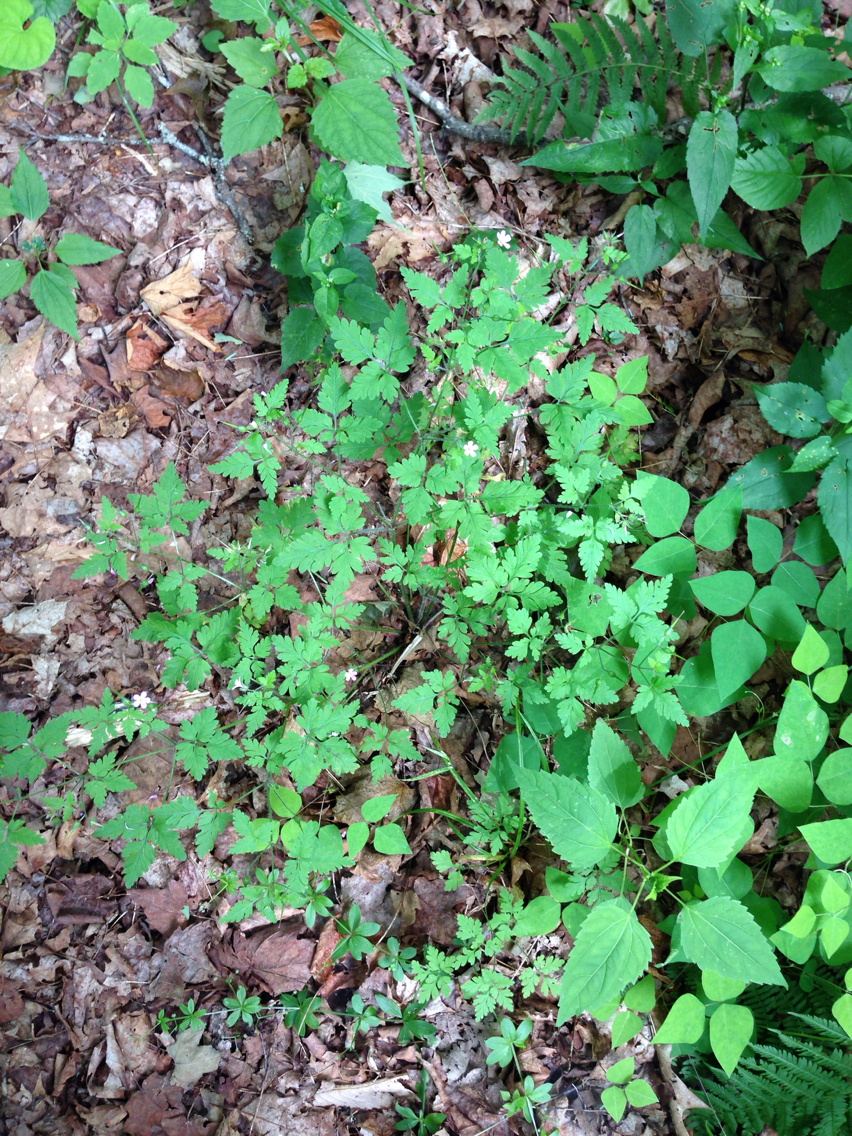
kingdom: Plantae
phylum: Tracheophyta
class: Magnoliopsida
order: Geraniales
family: Geraniaceae
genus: Geranium
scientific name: Geranium robertianum
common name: Herb-robert
